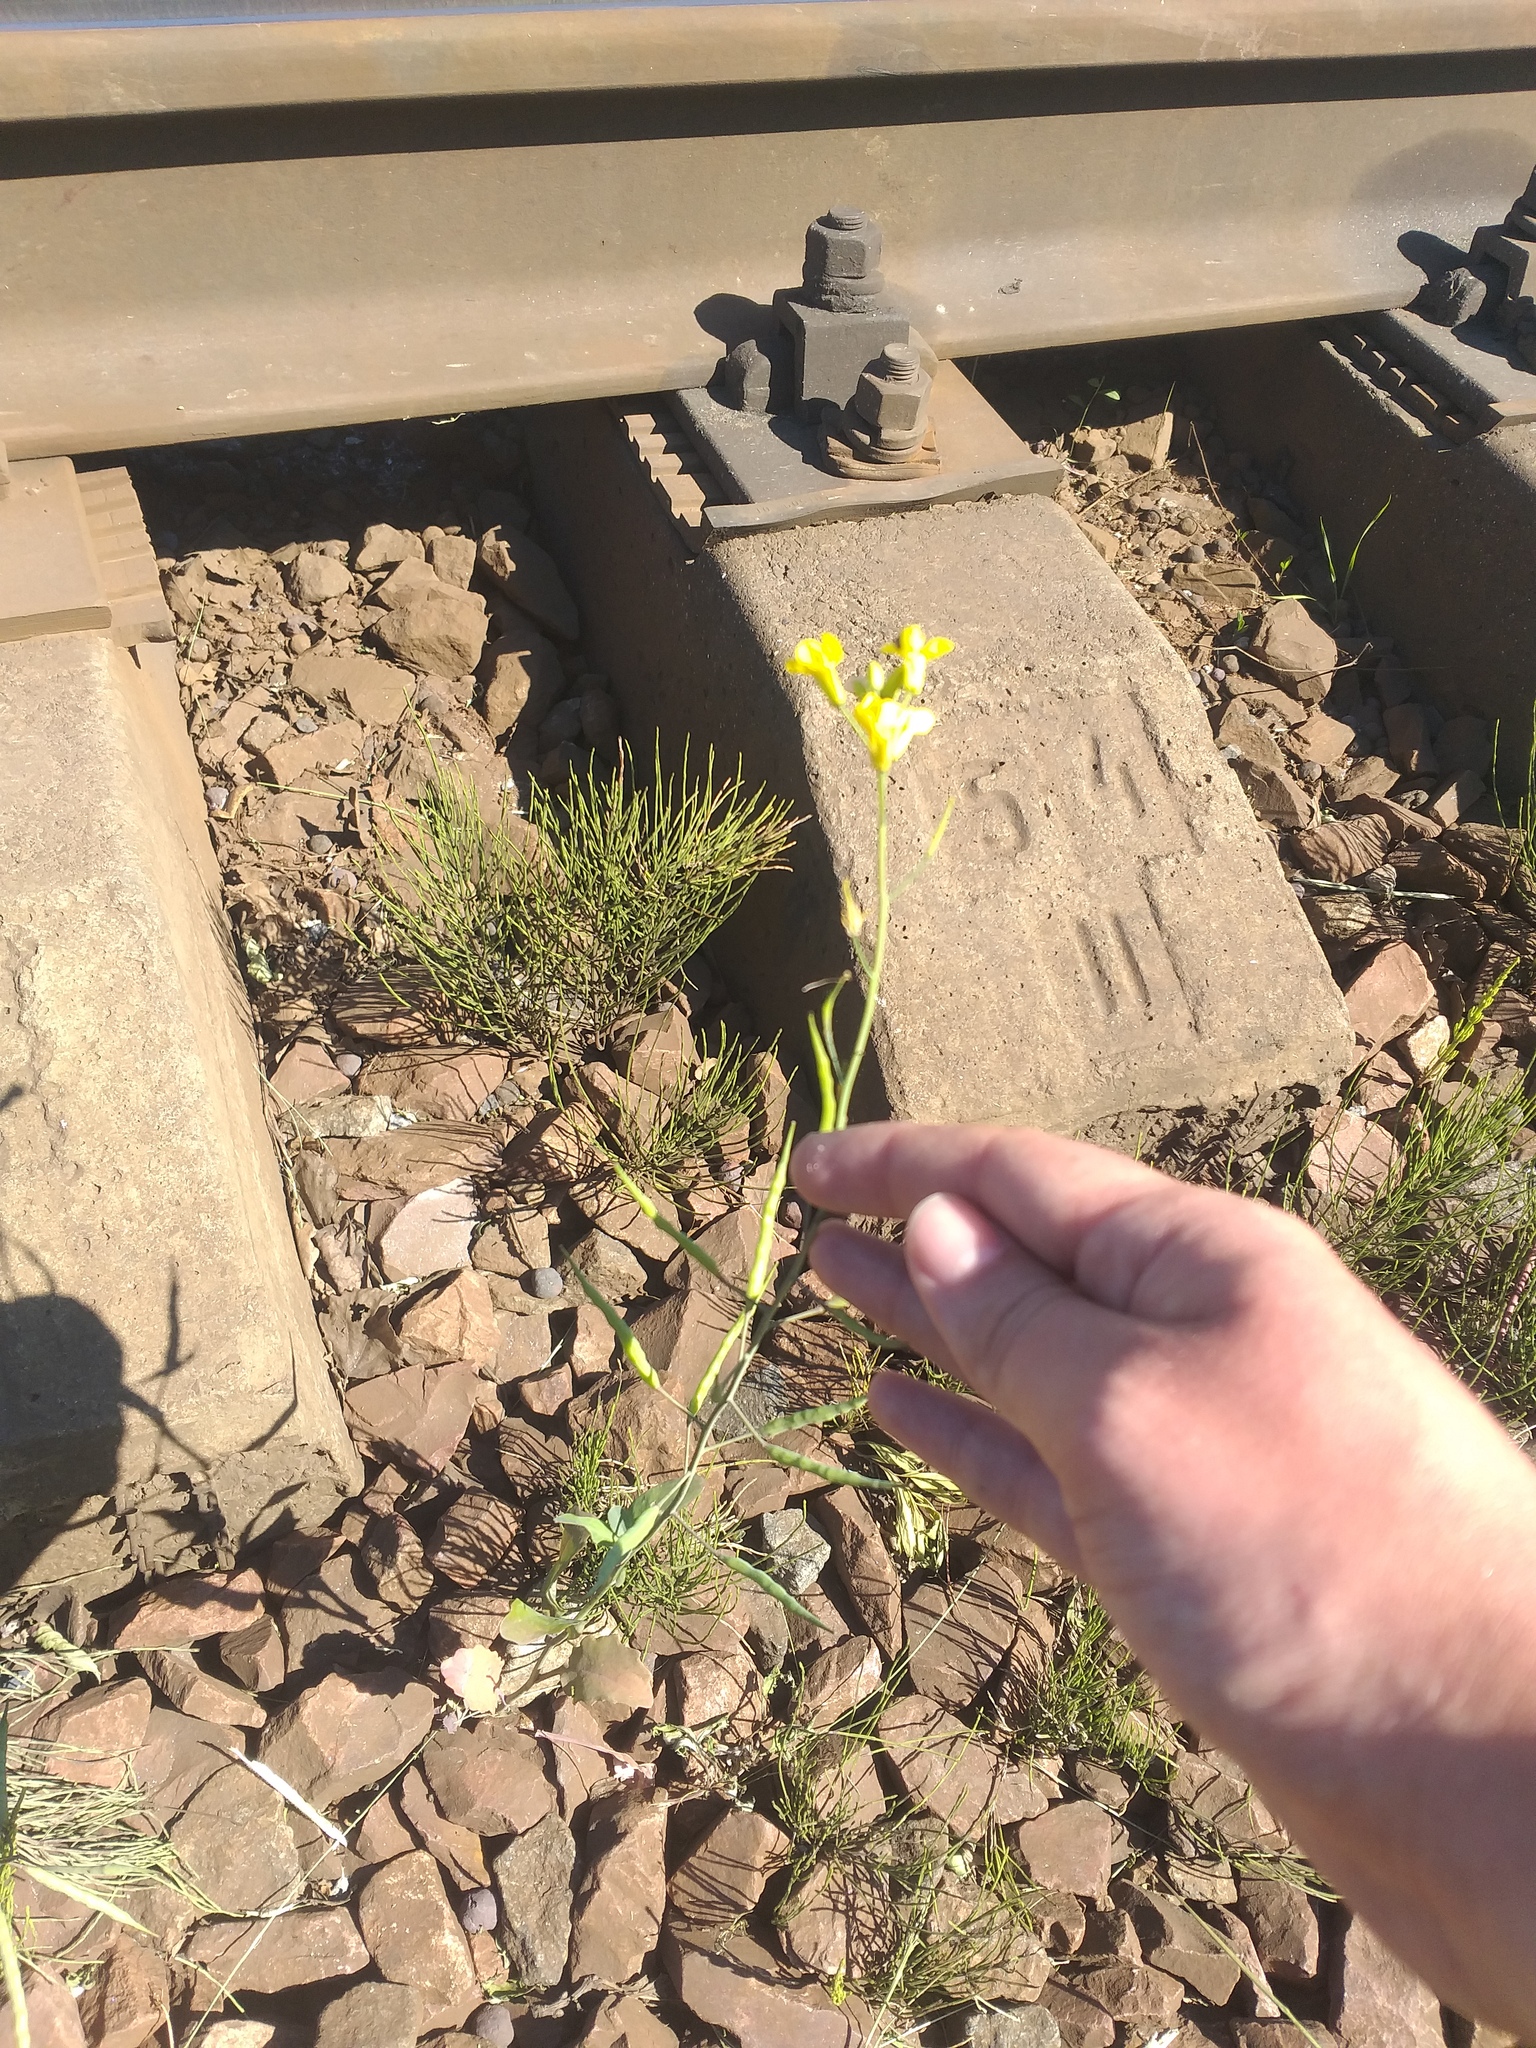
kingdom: Plantae
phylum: Tracheophyta
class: Magnoliopsida
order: Brassicales
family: Brassicaceae
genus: Brassica
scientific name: Brassica napus
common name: Rape
